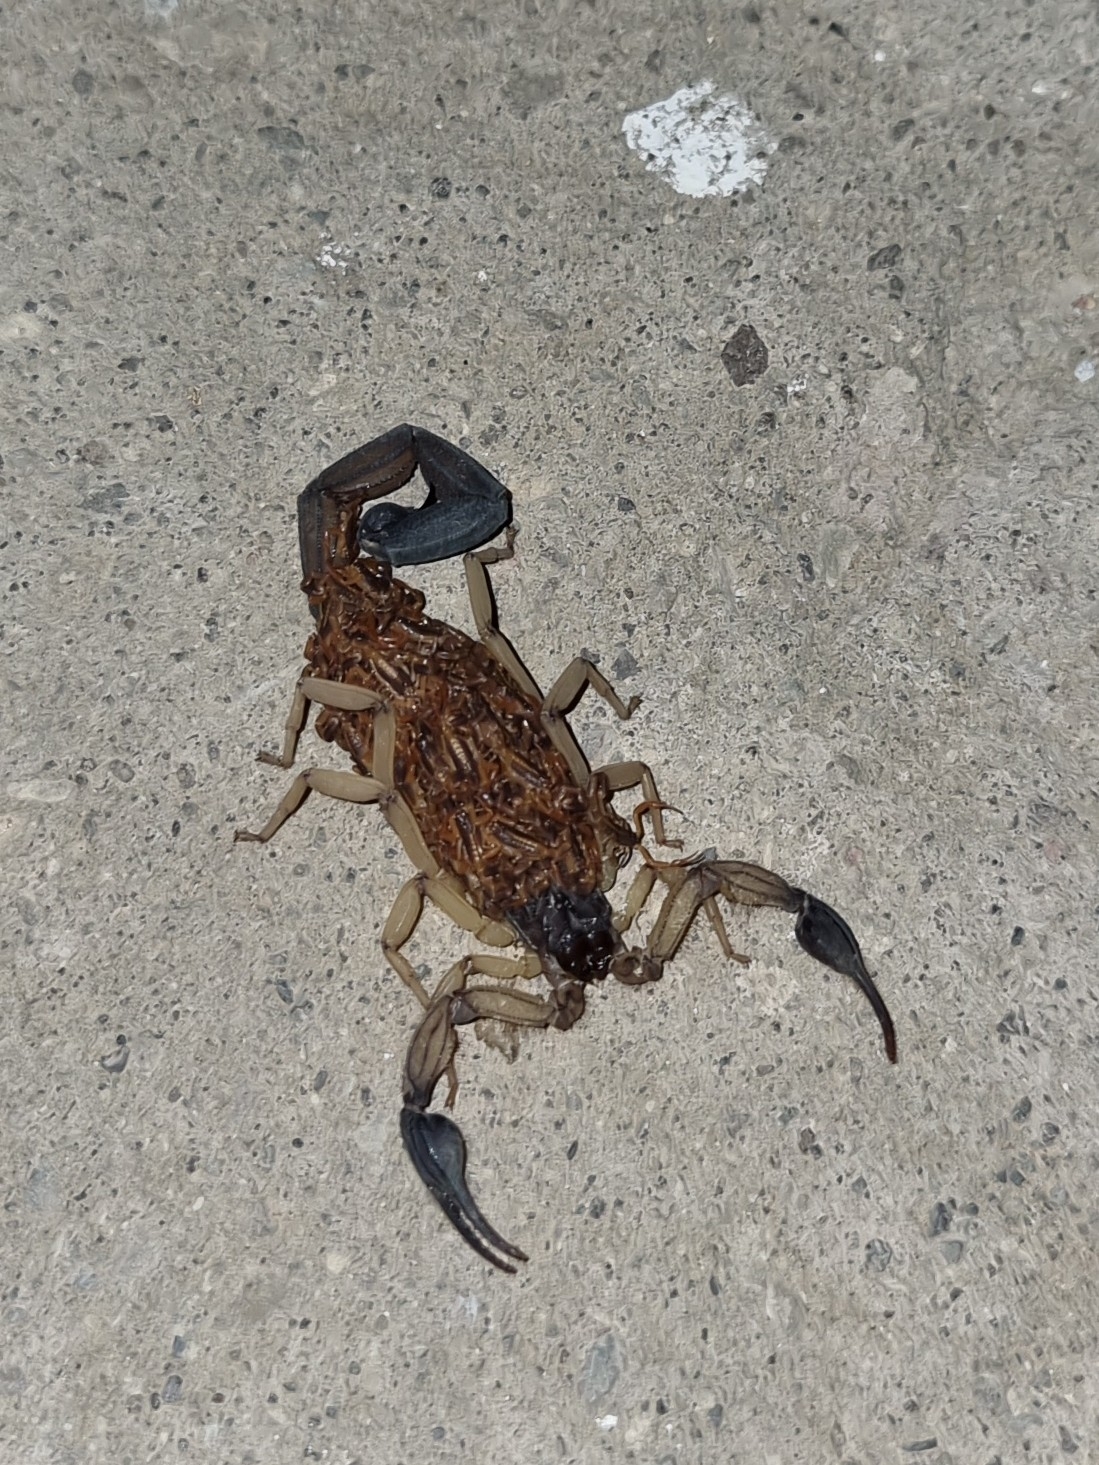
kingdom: Animalia
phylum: Arthropoda
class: Arachnida
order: Scorpiones
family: Buthidae
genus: Centruroides
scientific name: Centruroides edwardsii
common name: Scorpions
